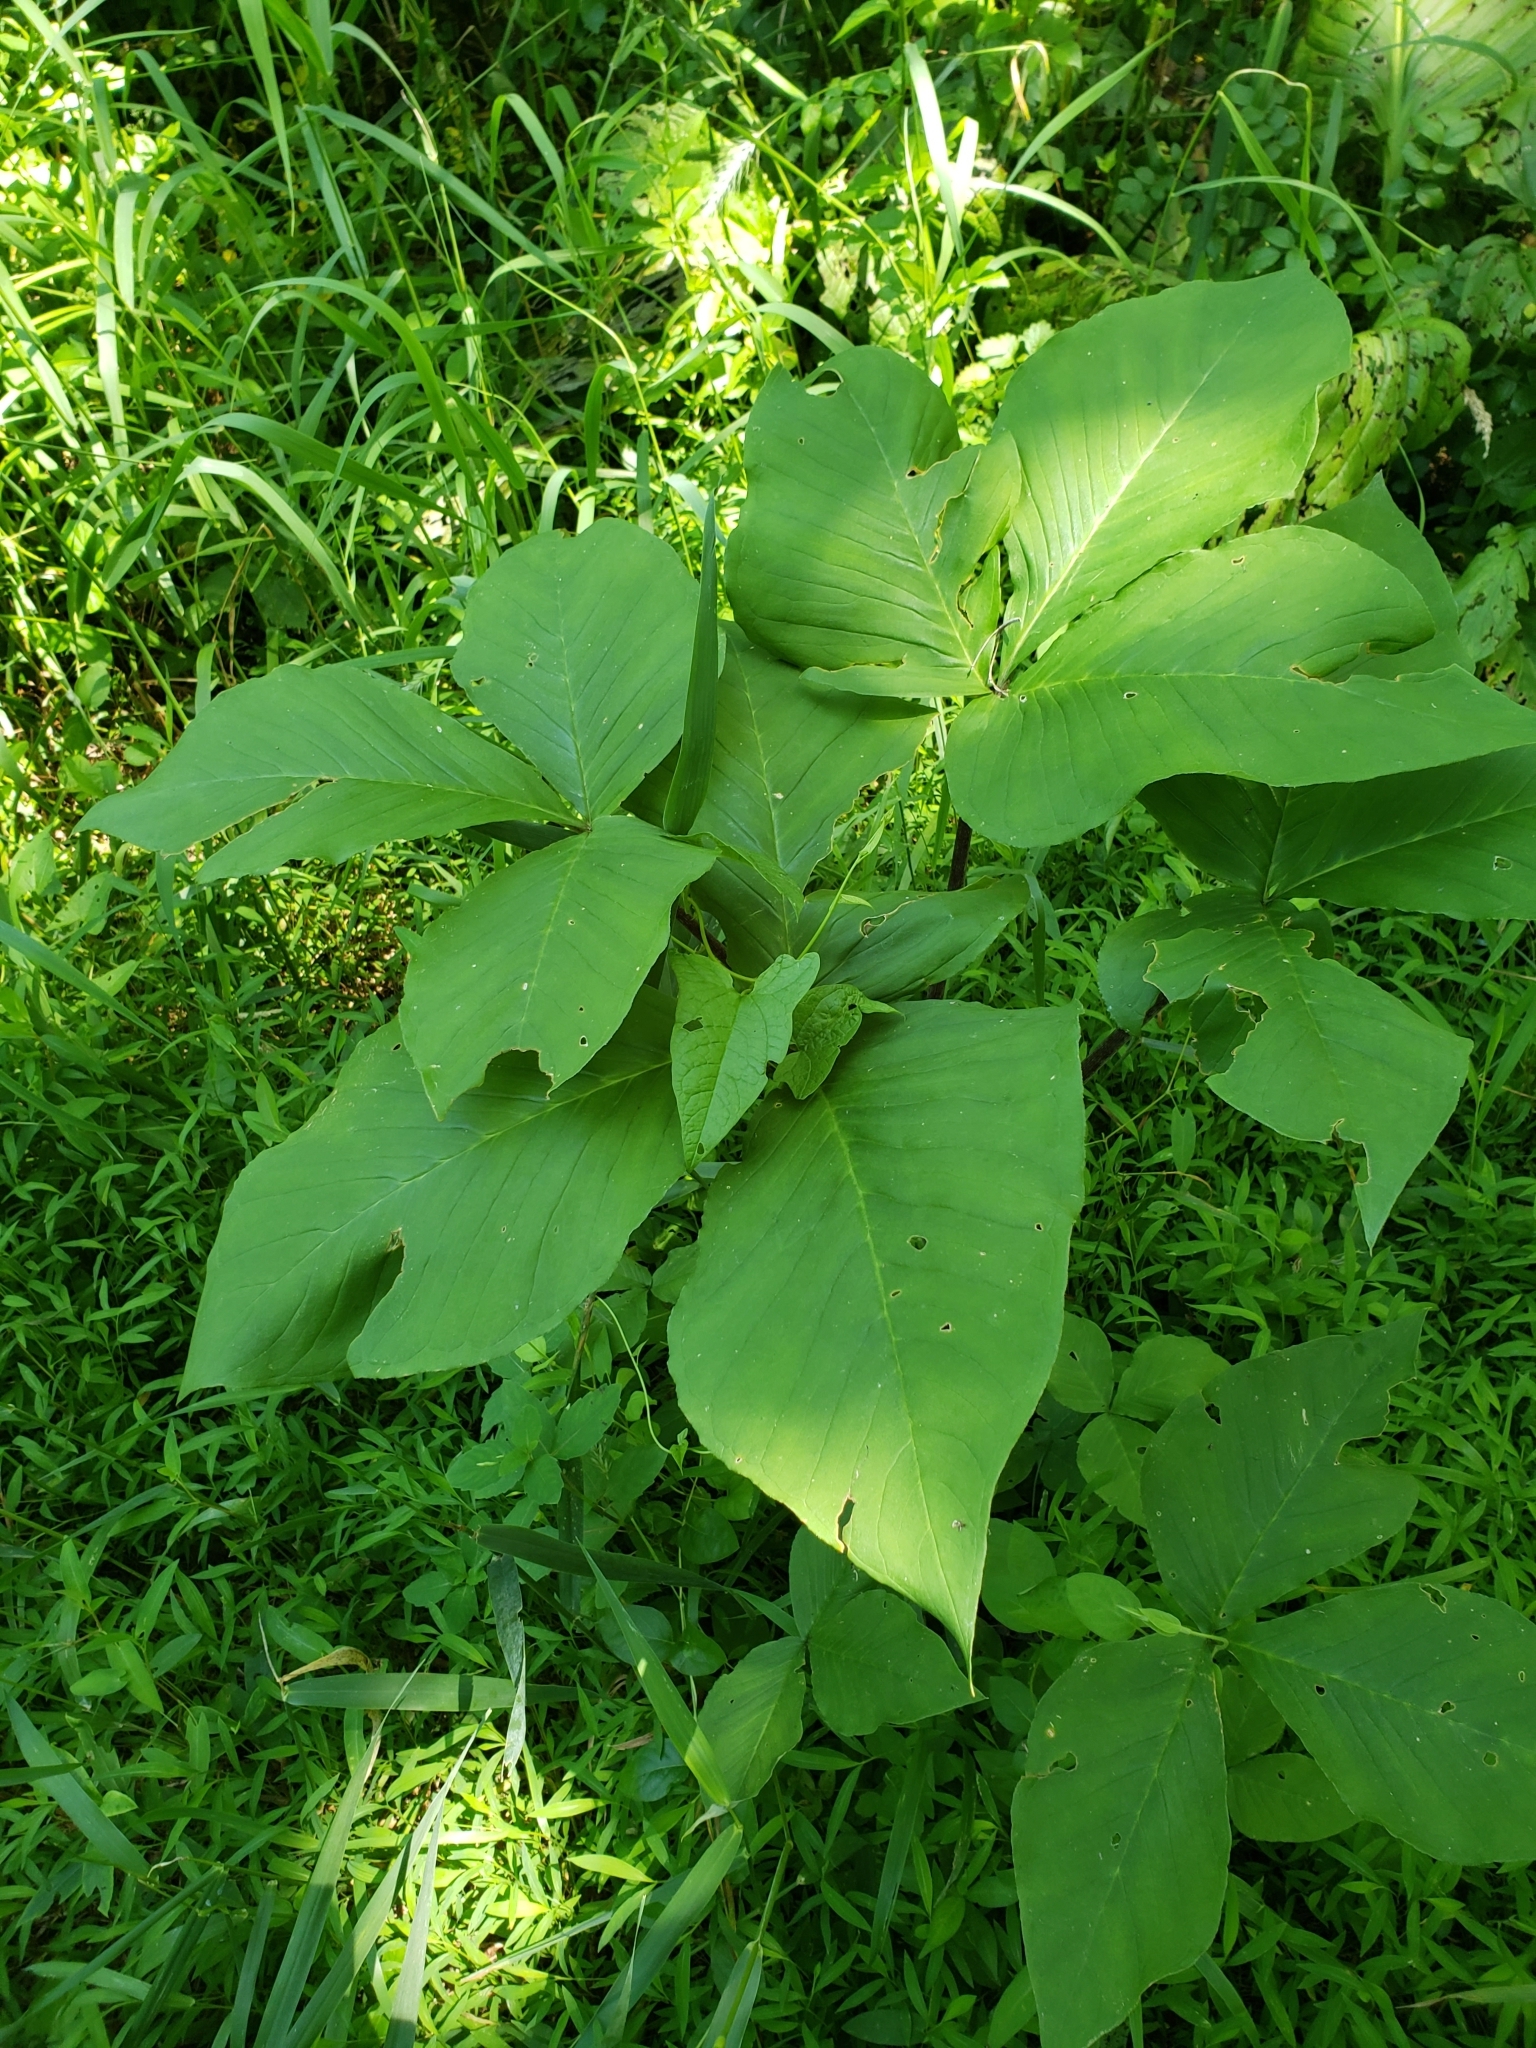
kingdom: Plantae
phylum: Tracheophyta
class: Liliopsida
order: Alismatales
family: Araceae
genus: Arisaema
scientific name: Arisaema triphyllum
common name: Jack-in-the-pulpit
